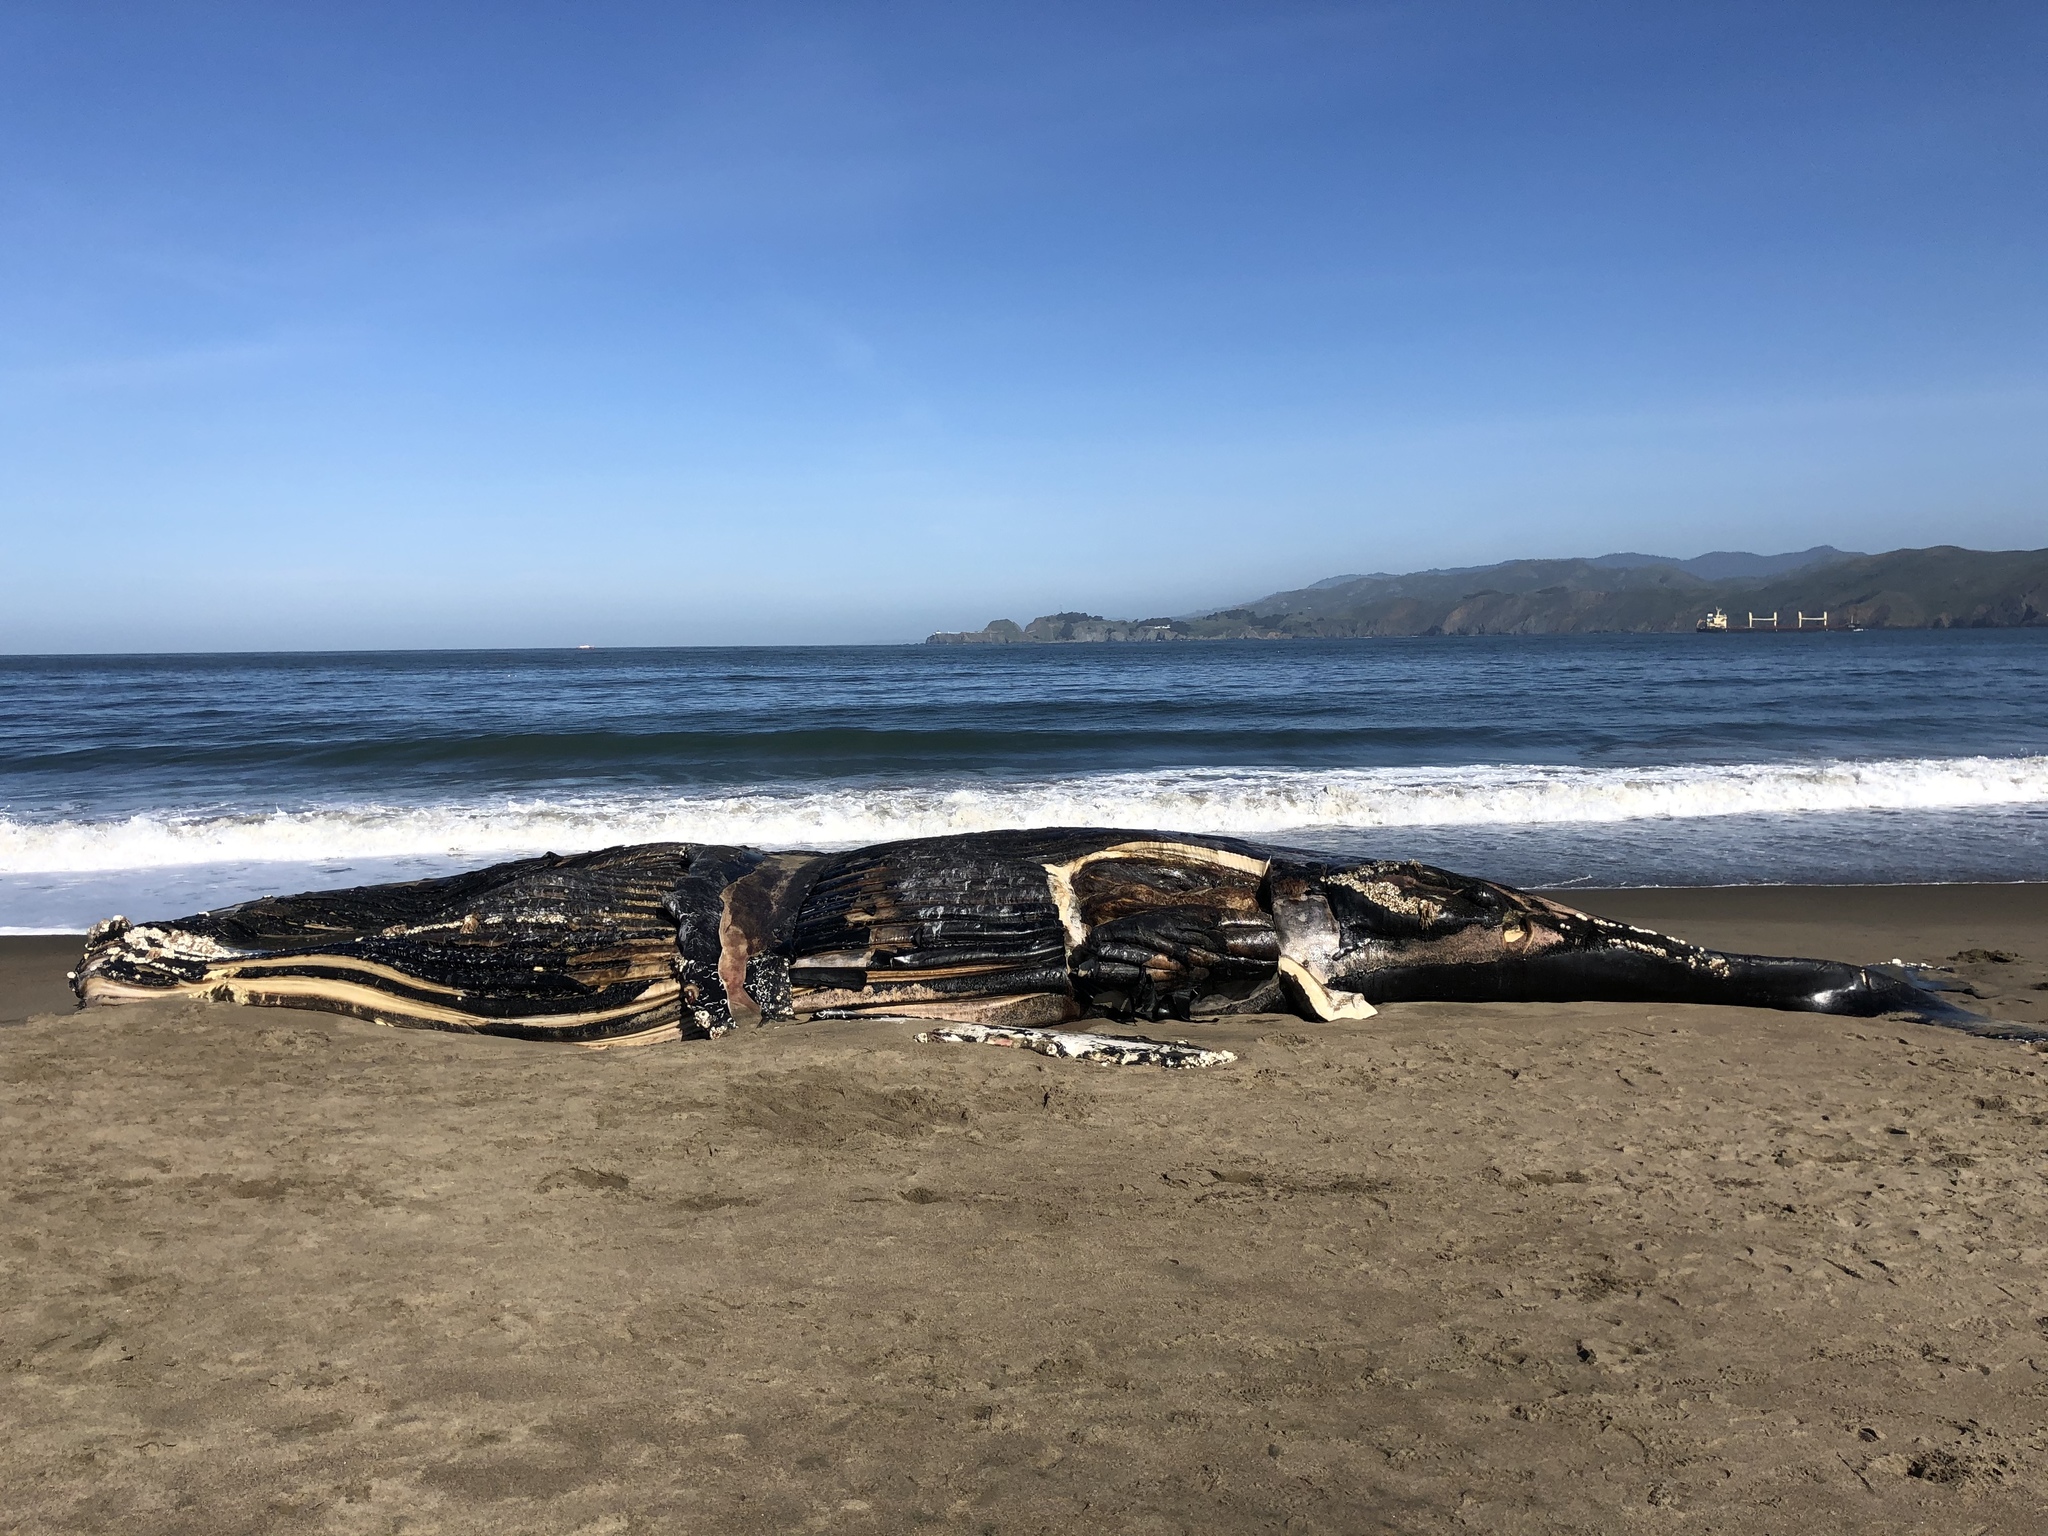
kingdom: Animalia
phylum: Chordata
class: Mammalia
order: Cetacea
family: Balaenopteridae
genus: Megaptera
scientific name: Megaptera novaeangliae
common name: Humpback whale
